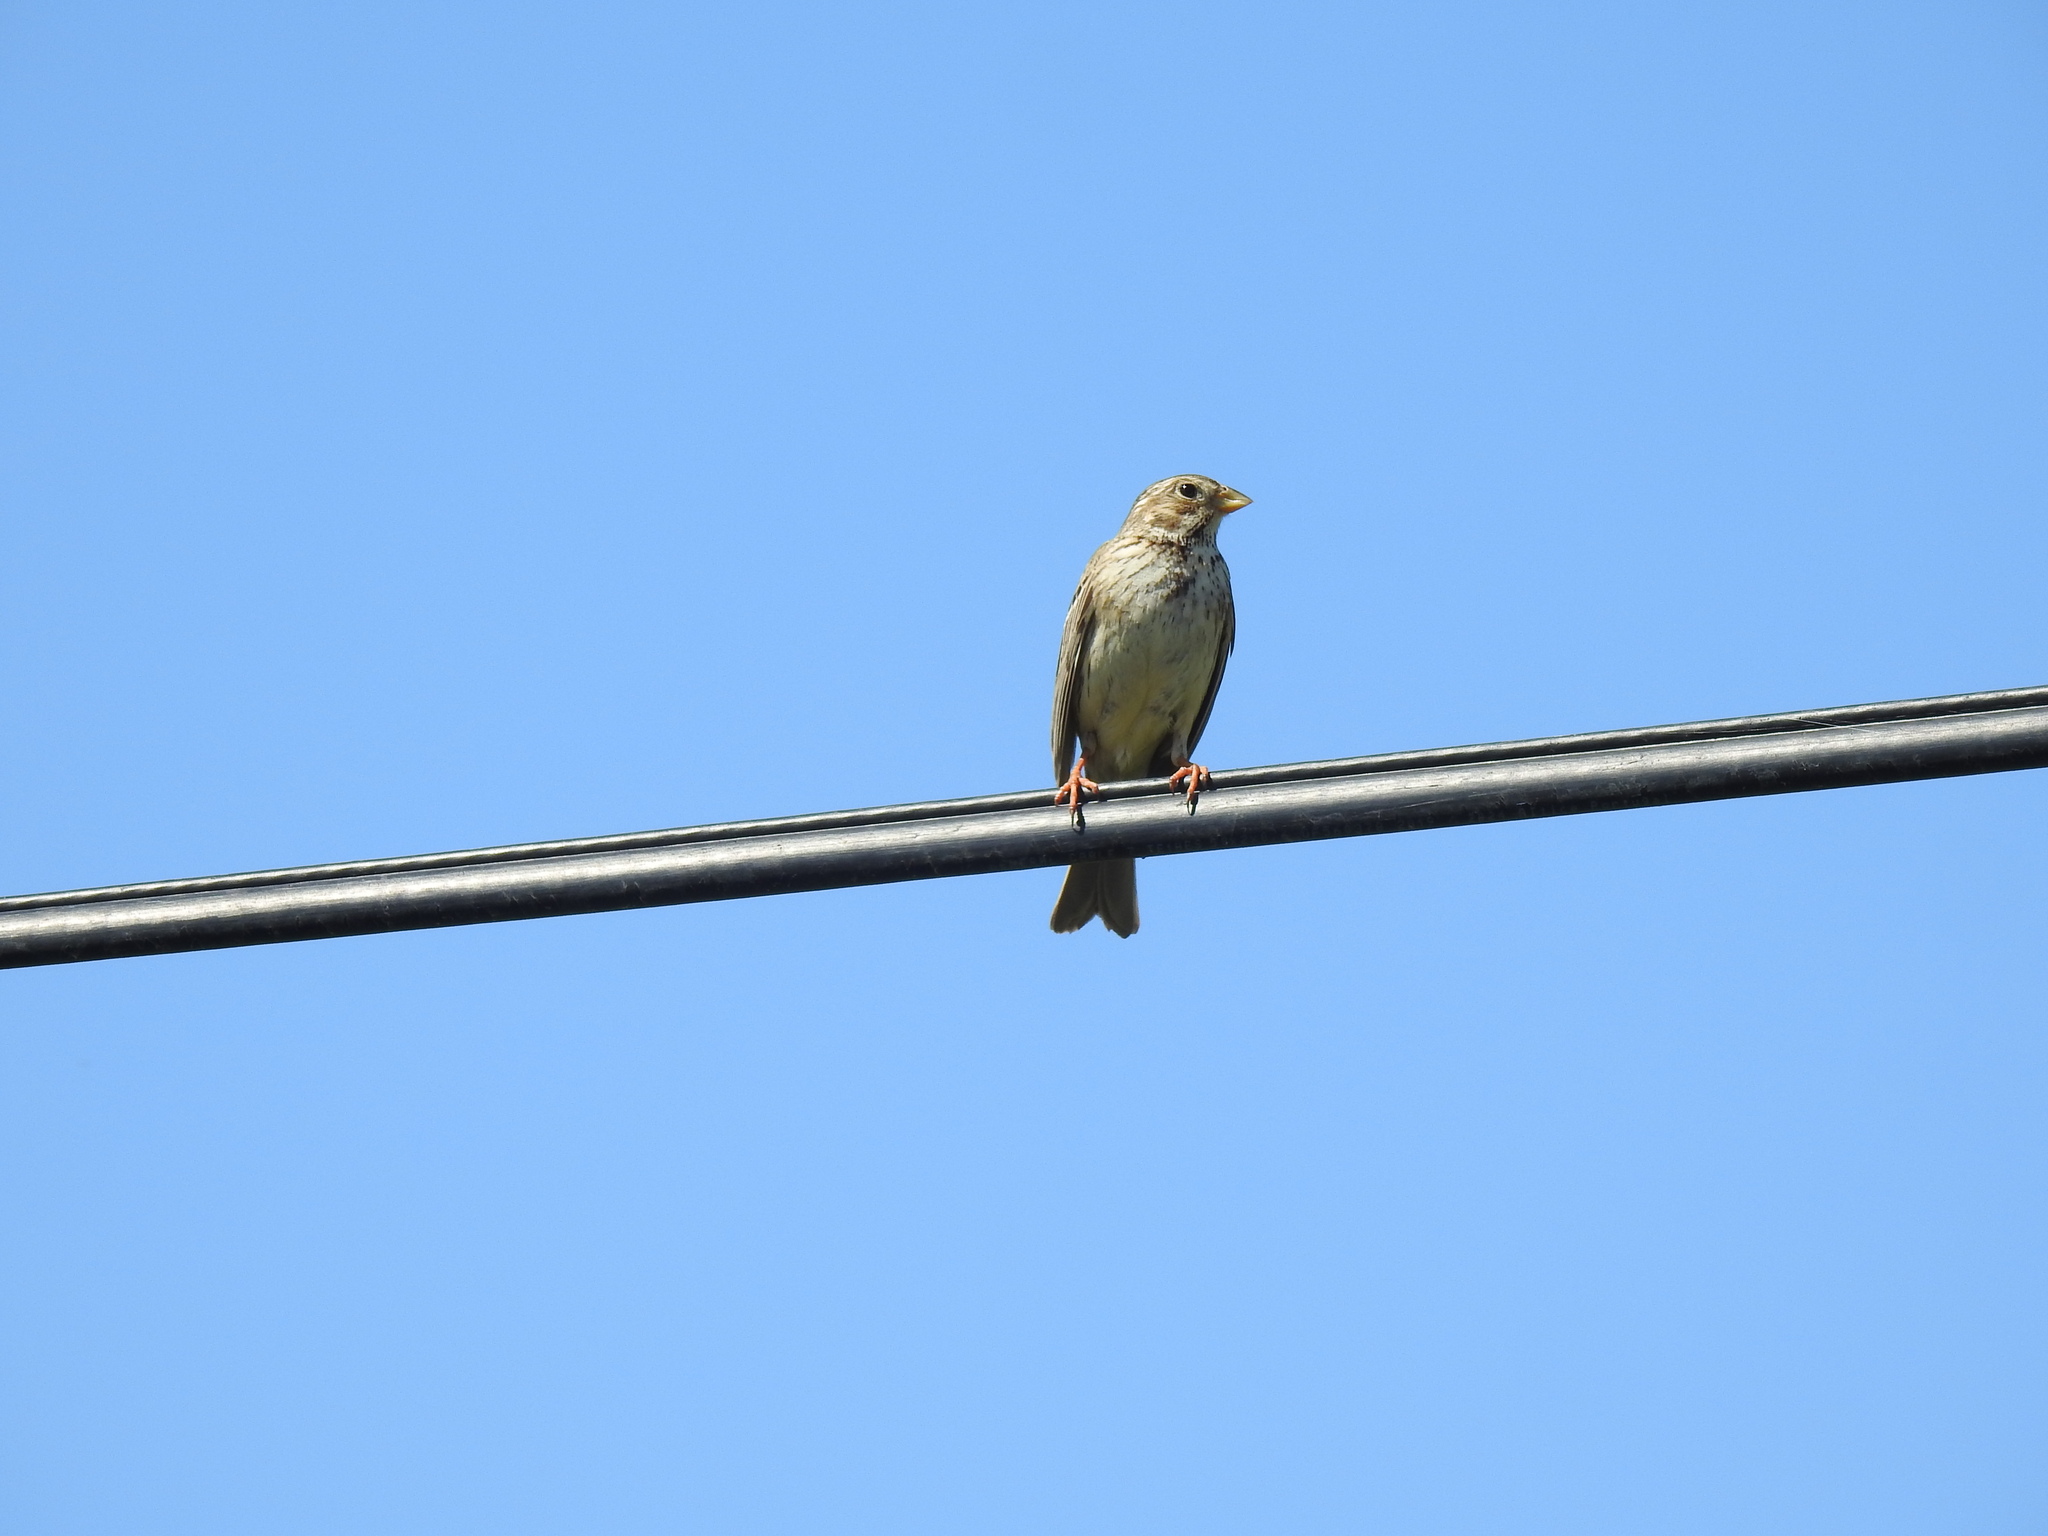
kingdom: Animalia
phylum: Chordata
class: Aves
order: Passeriformes
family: Emberizidae
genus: Emberiza
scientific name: Emberiza calandra
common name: Corn bunting
